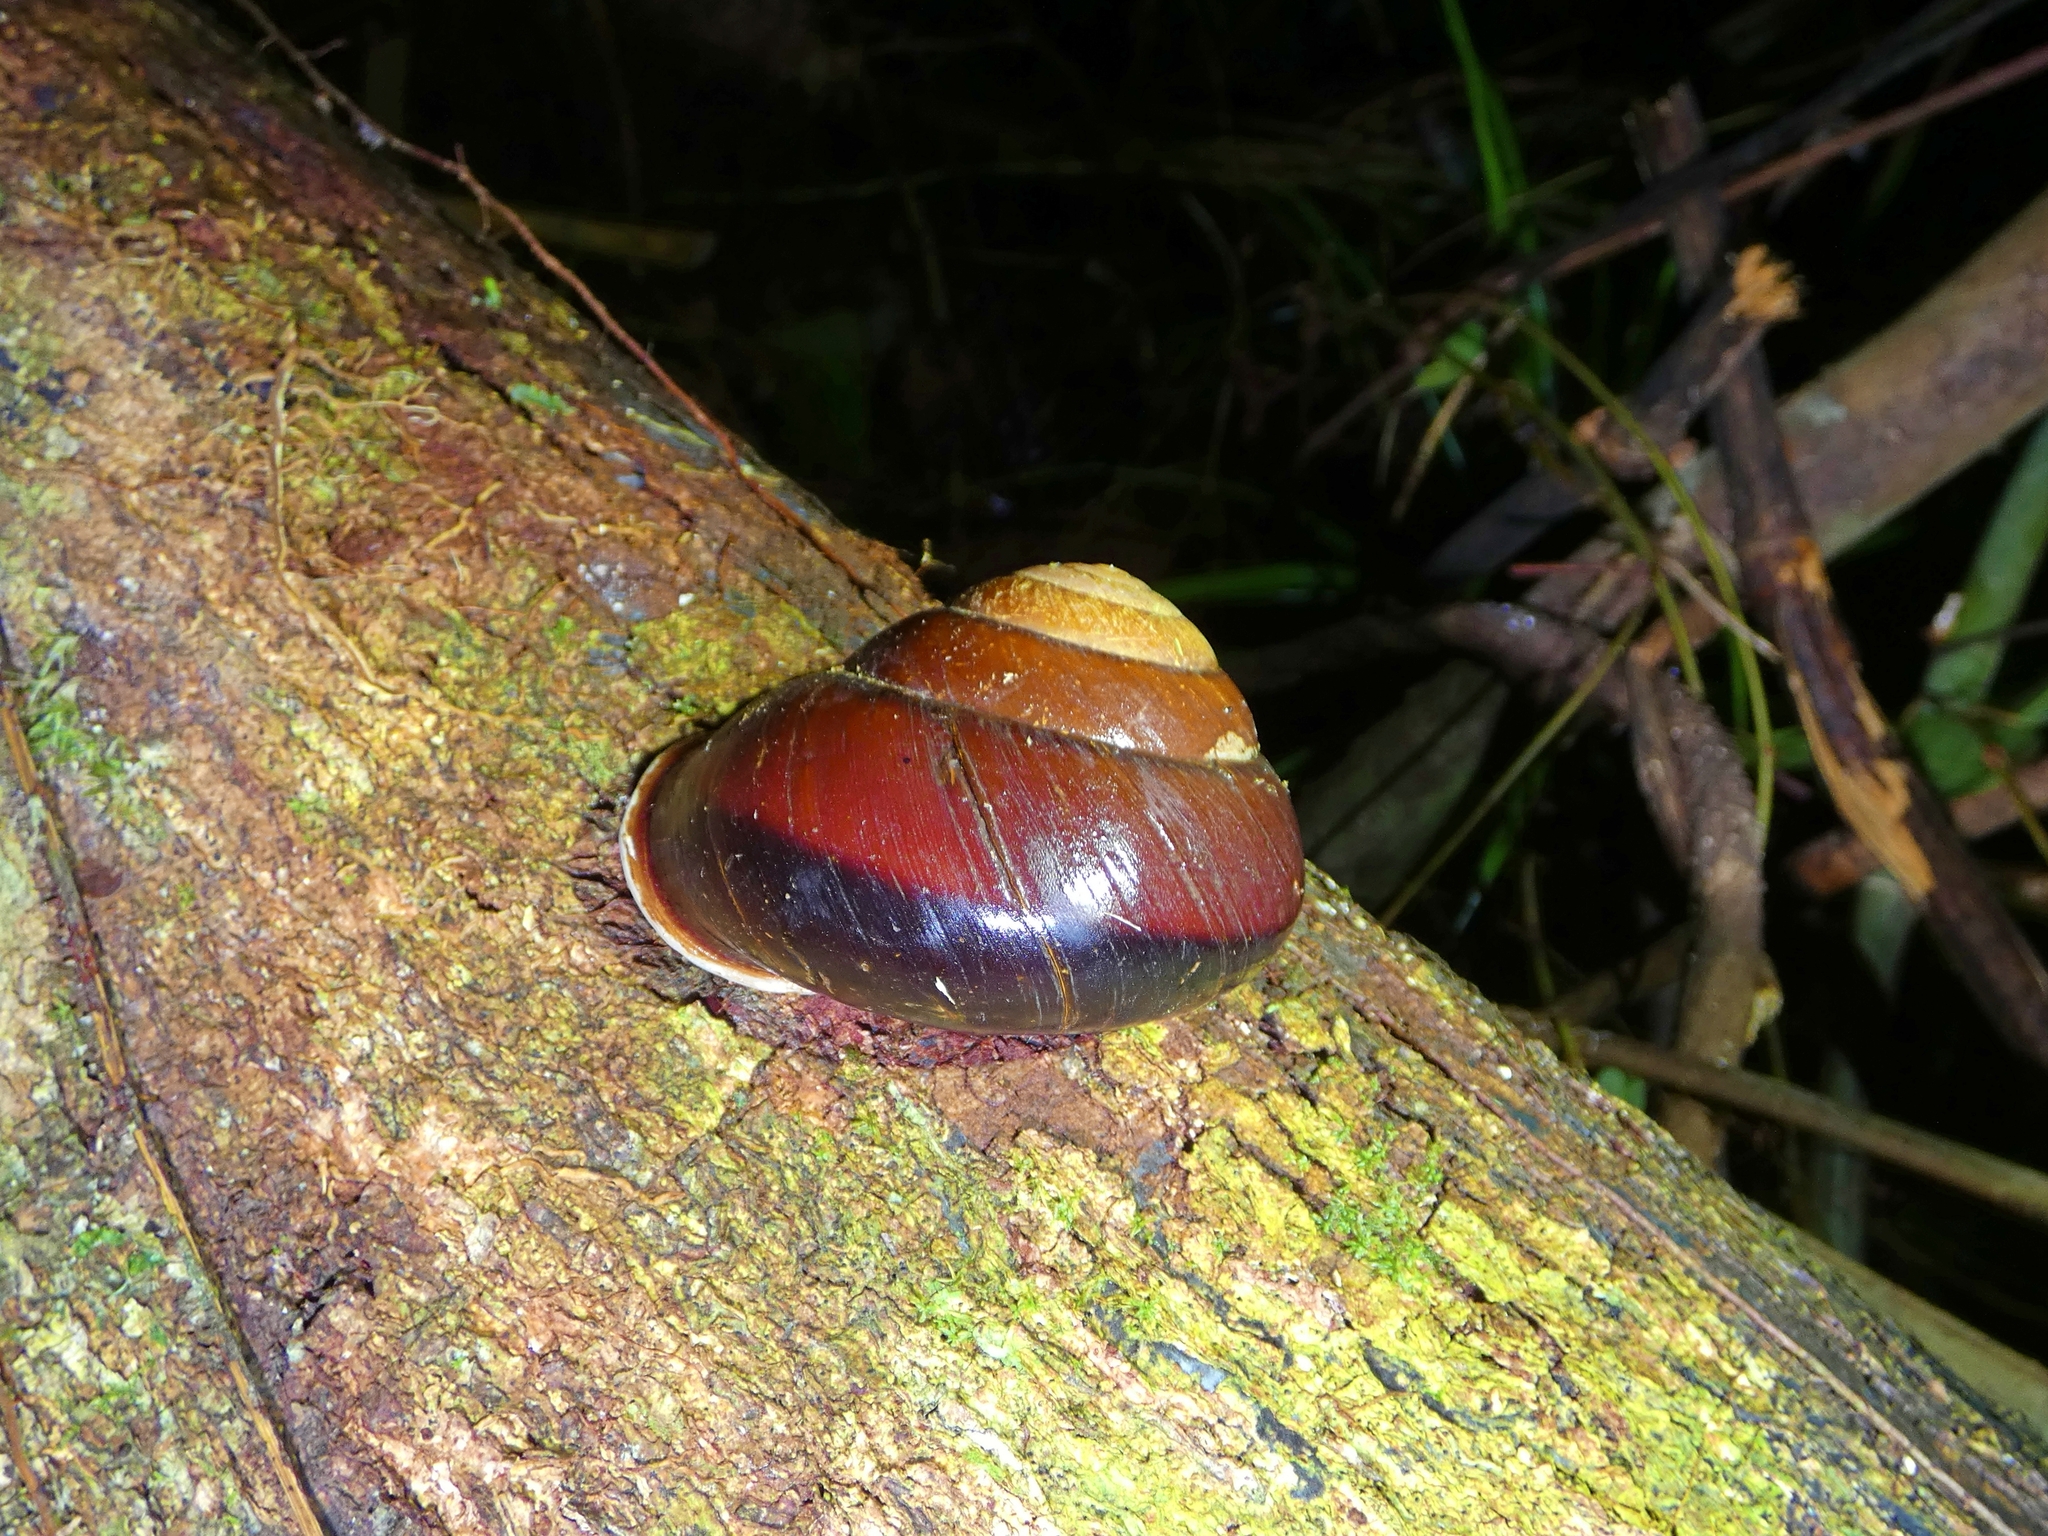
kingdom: Animalia
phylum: Mollusca
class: Gastropoda
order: Stylommatophora
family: Camaenidae
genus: Hadra
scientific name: Hadra bipartita
